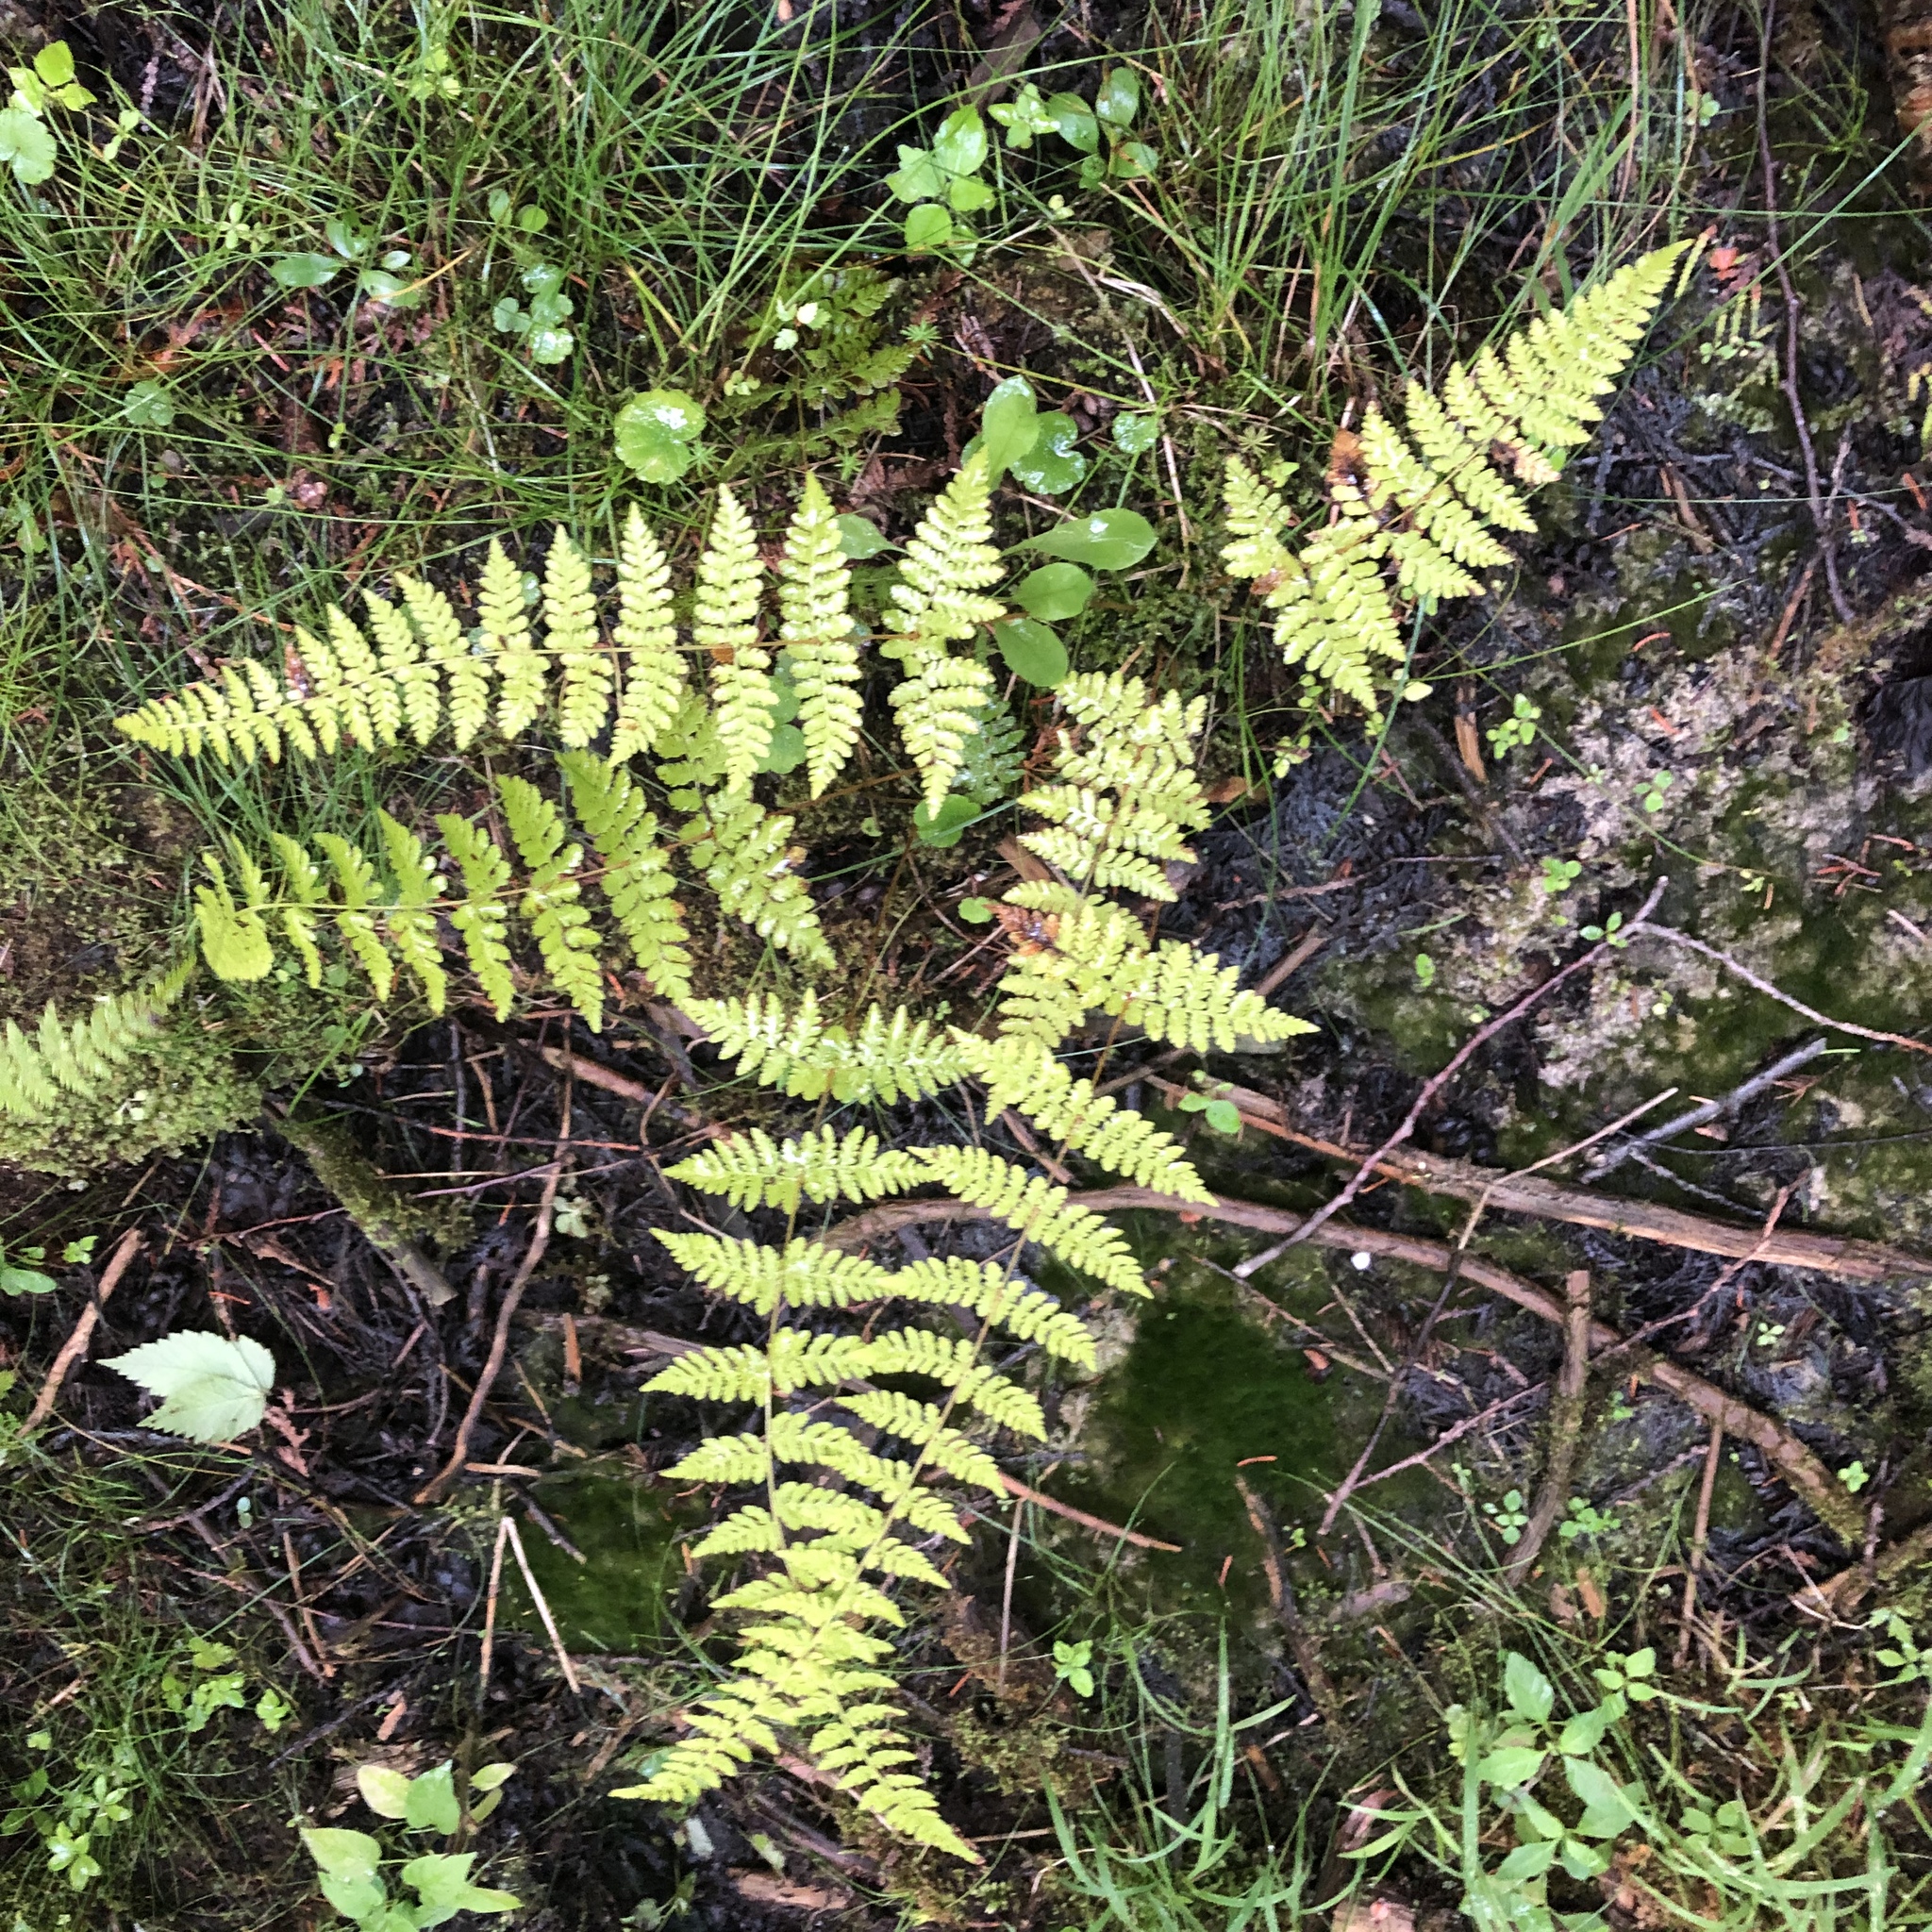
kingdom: Plantae
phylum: Tracheophyta
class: Polypodiopsida
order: Polypodiales
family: Cystopteridaceae
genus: Cystopteris
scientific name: Cystopteris bulbifera
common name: Bulblet bladder fern
